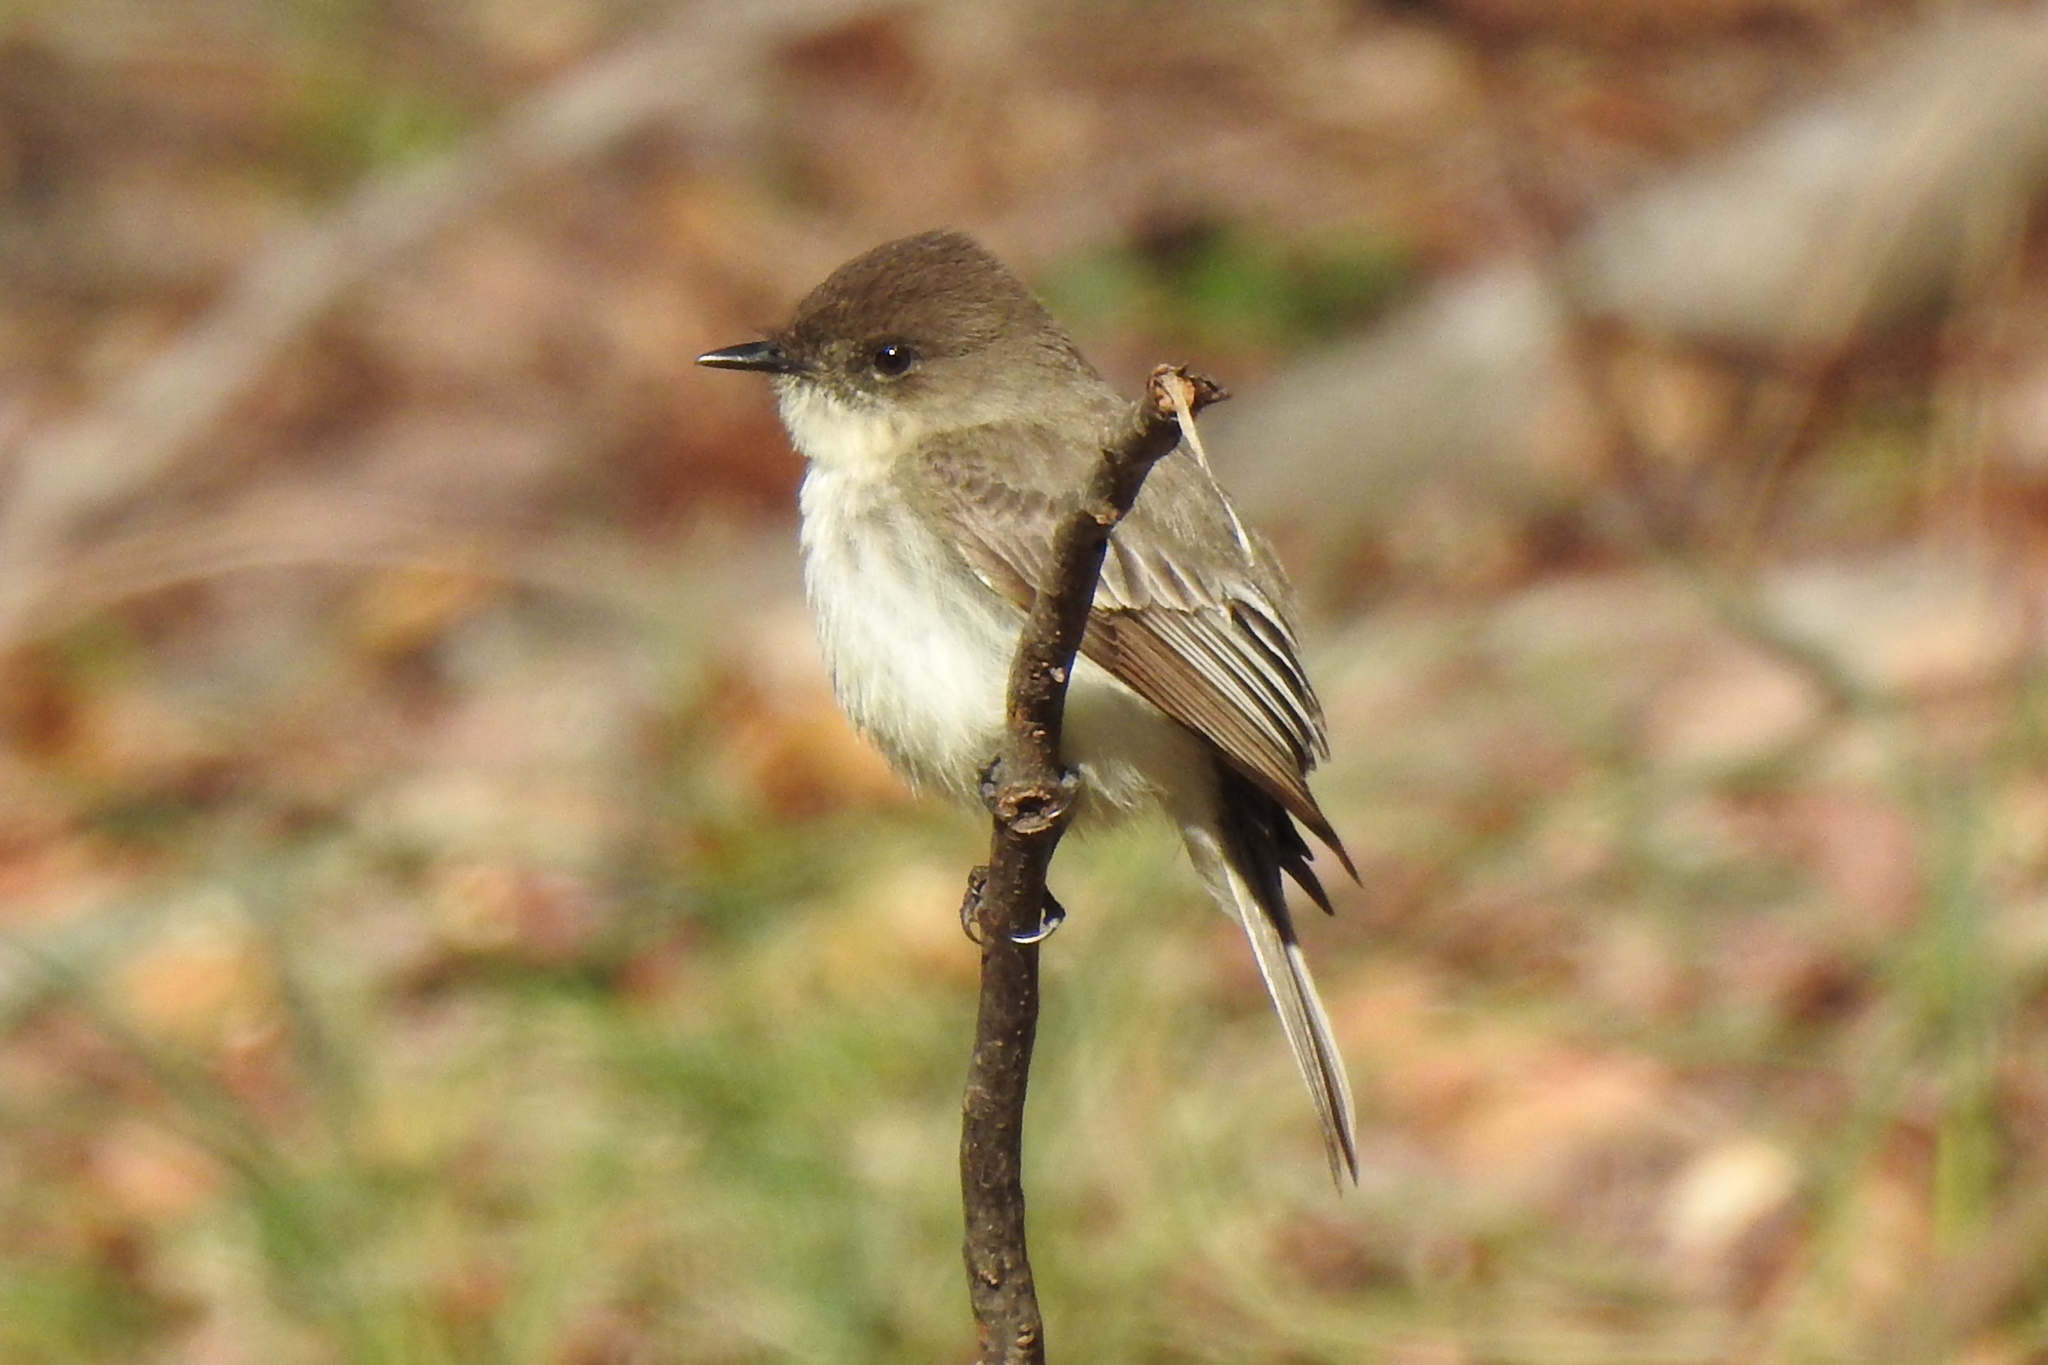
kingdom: Animalia
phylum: Chordata
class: Aves
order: Passeriformes
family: Tyrannidae
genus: Sayornis
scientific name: Sayornis phoebe
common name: Eastern phoebe
